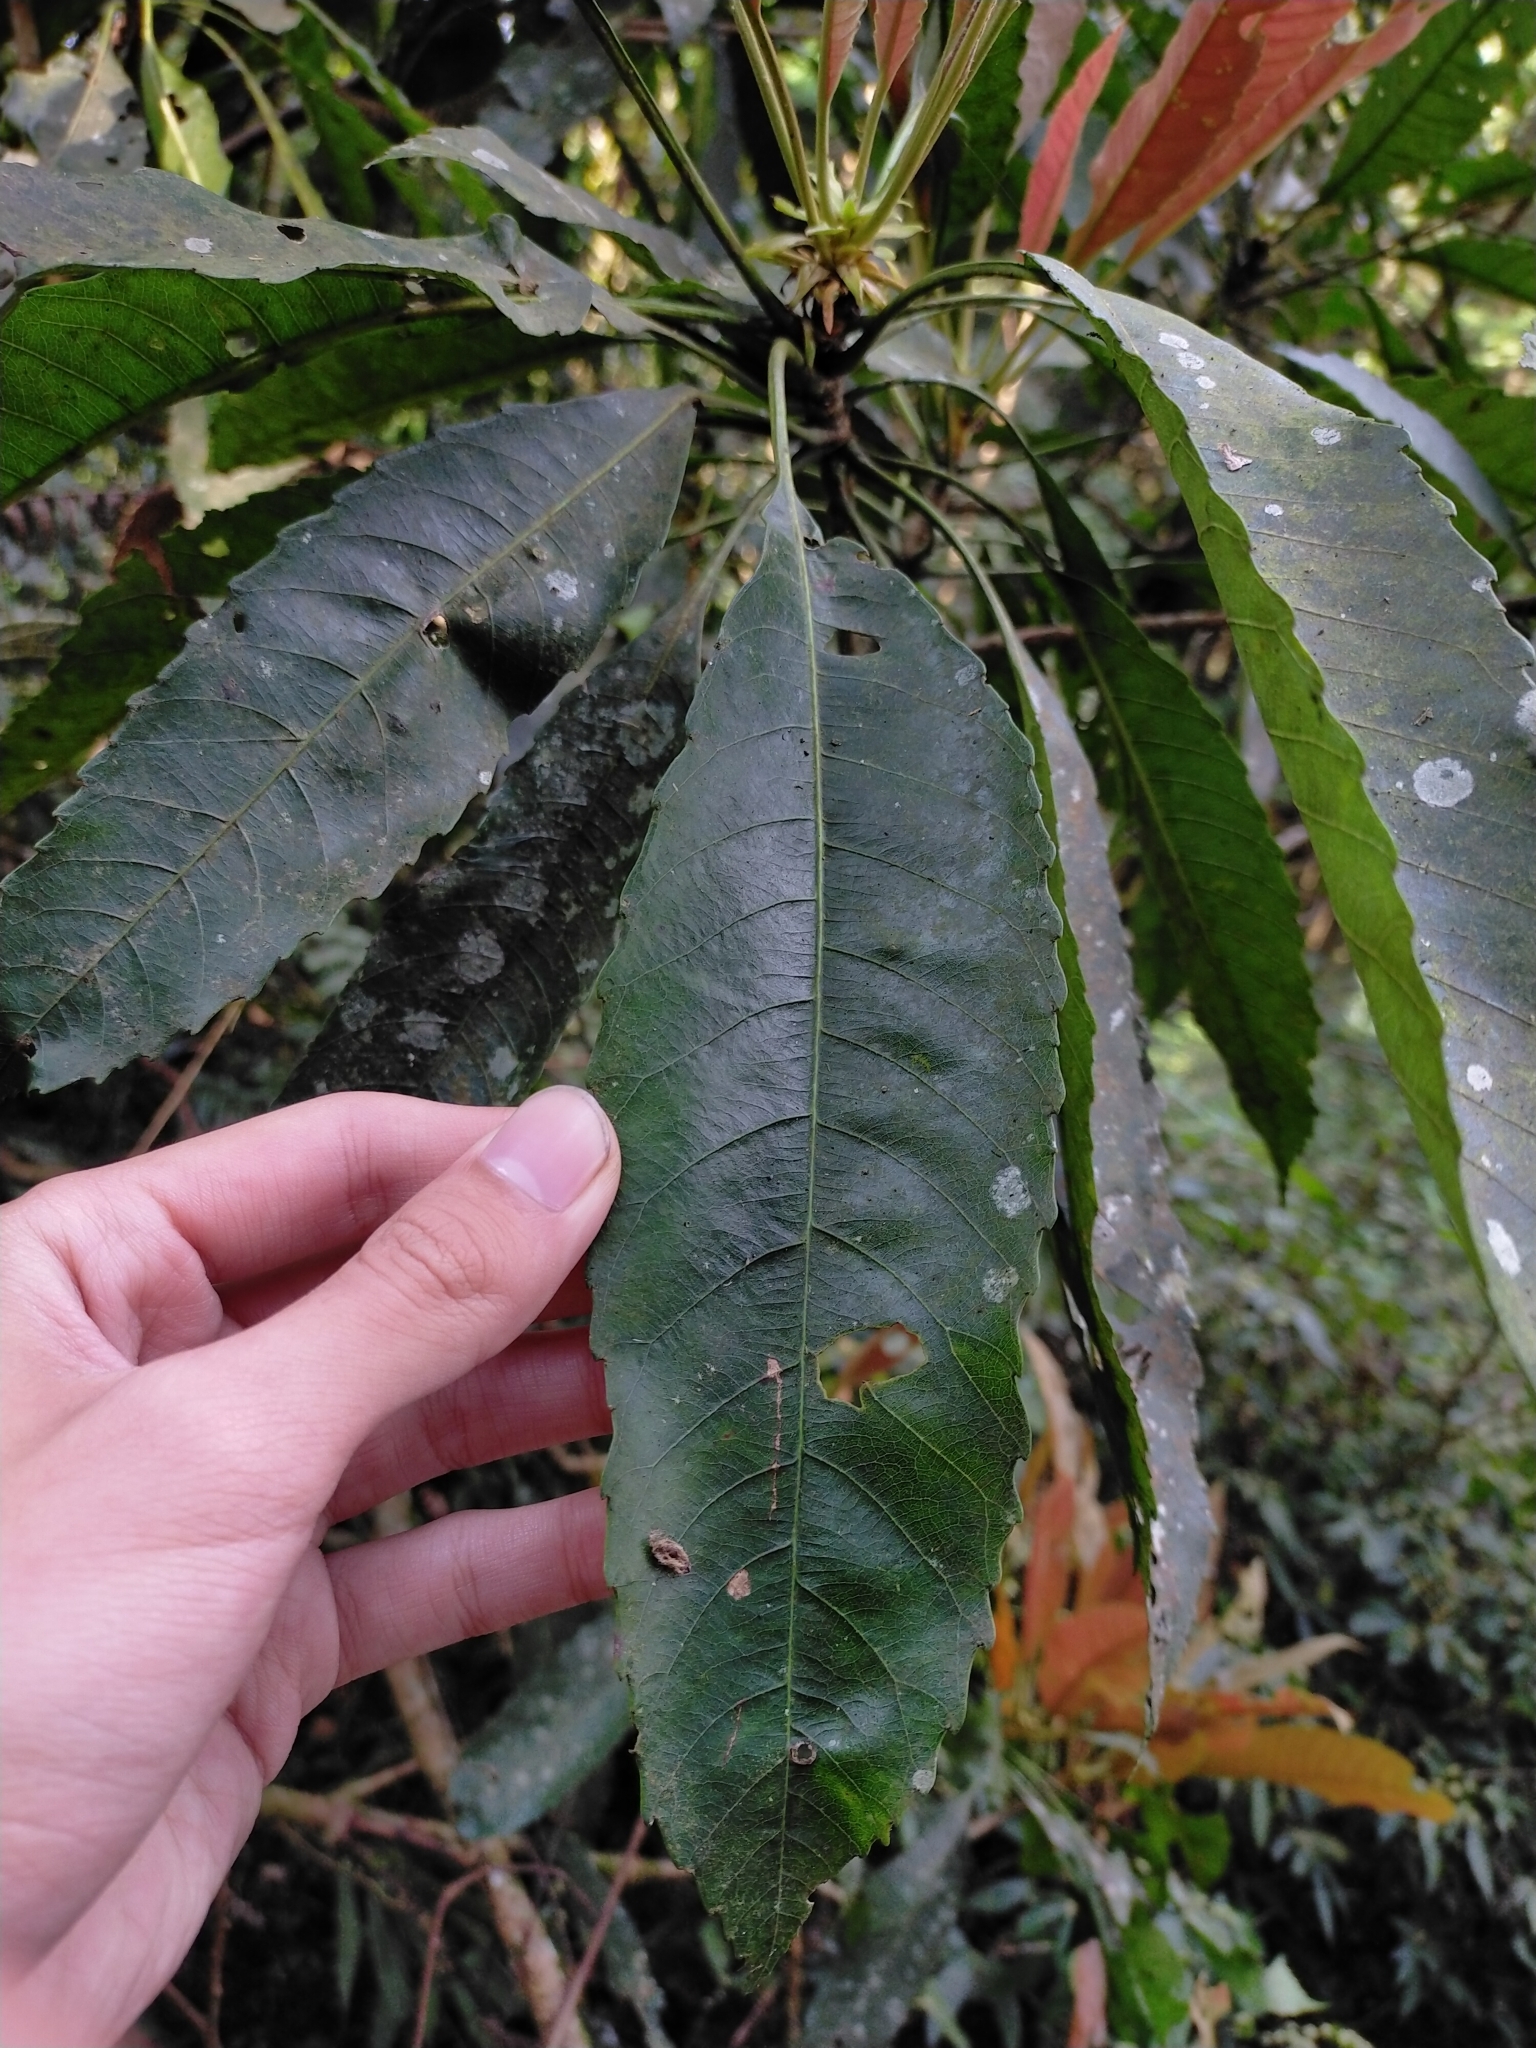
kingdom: Plantae
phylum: Tracheophyta
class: Magnoliopsida
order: Rosales
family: Rosaceae
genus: Rhaphiolepis
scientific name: Rhaphiolepis deflexa
